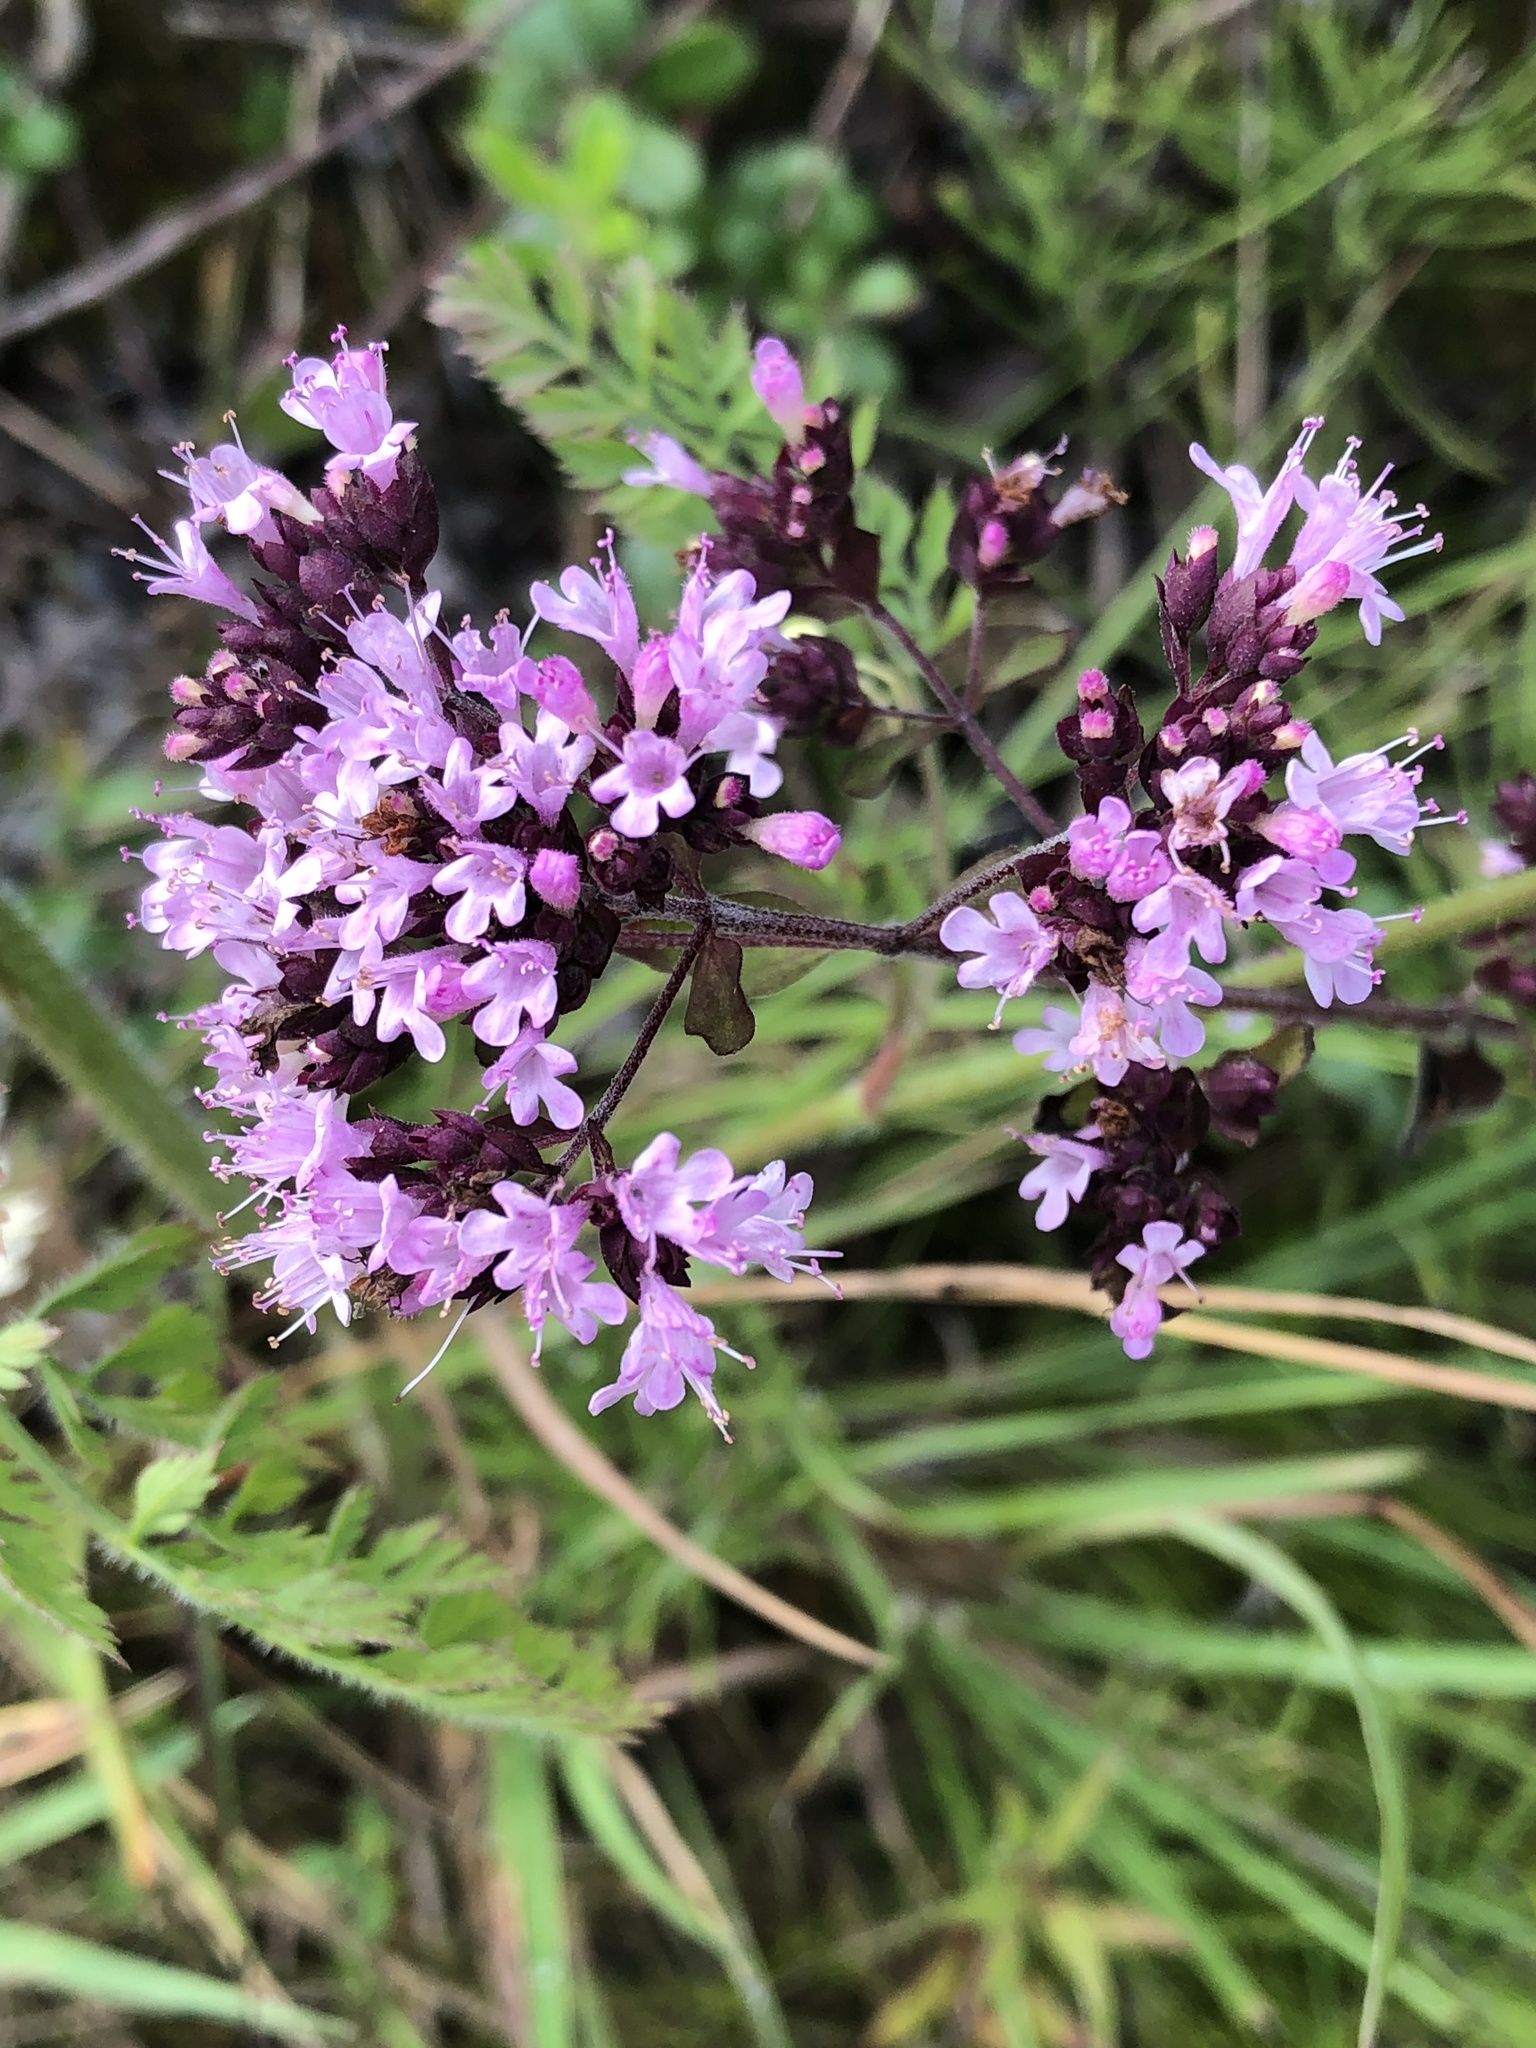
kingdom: Plantae
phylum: Tracheophyta
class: Magnoliopsida
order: Lamiales
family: Lamiaceae
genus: Origanum
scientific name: Origanum vulgare
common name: Wild marjoram
